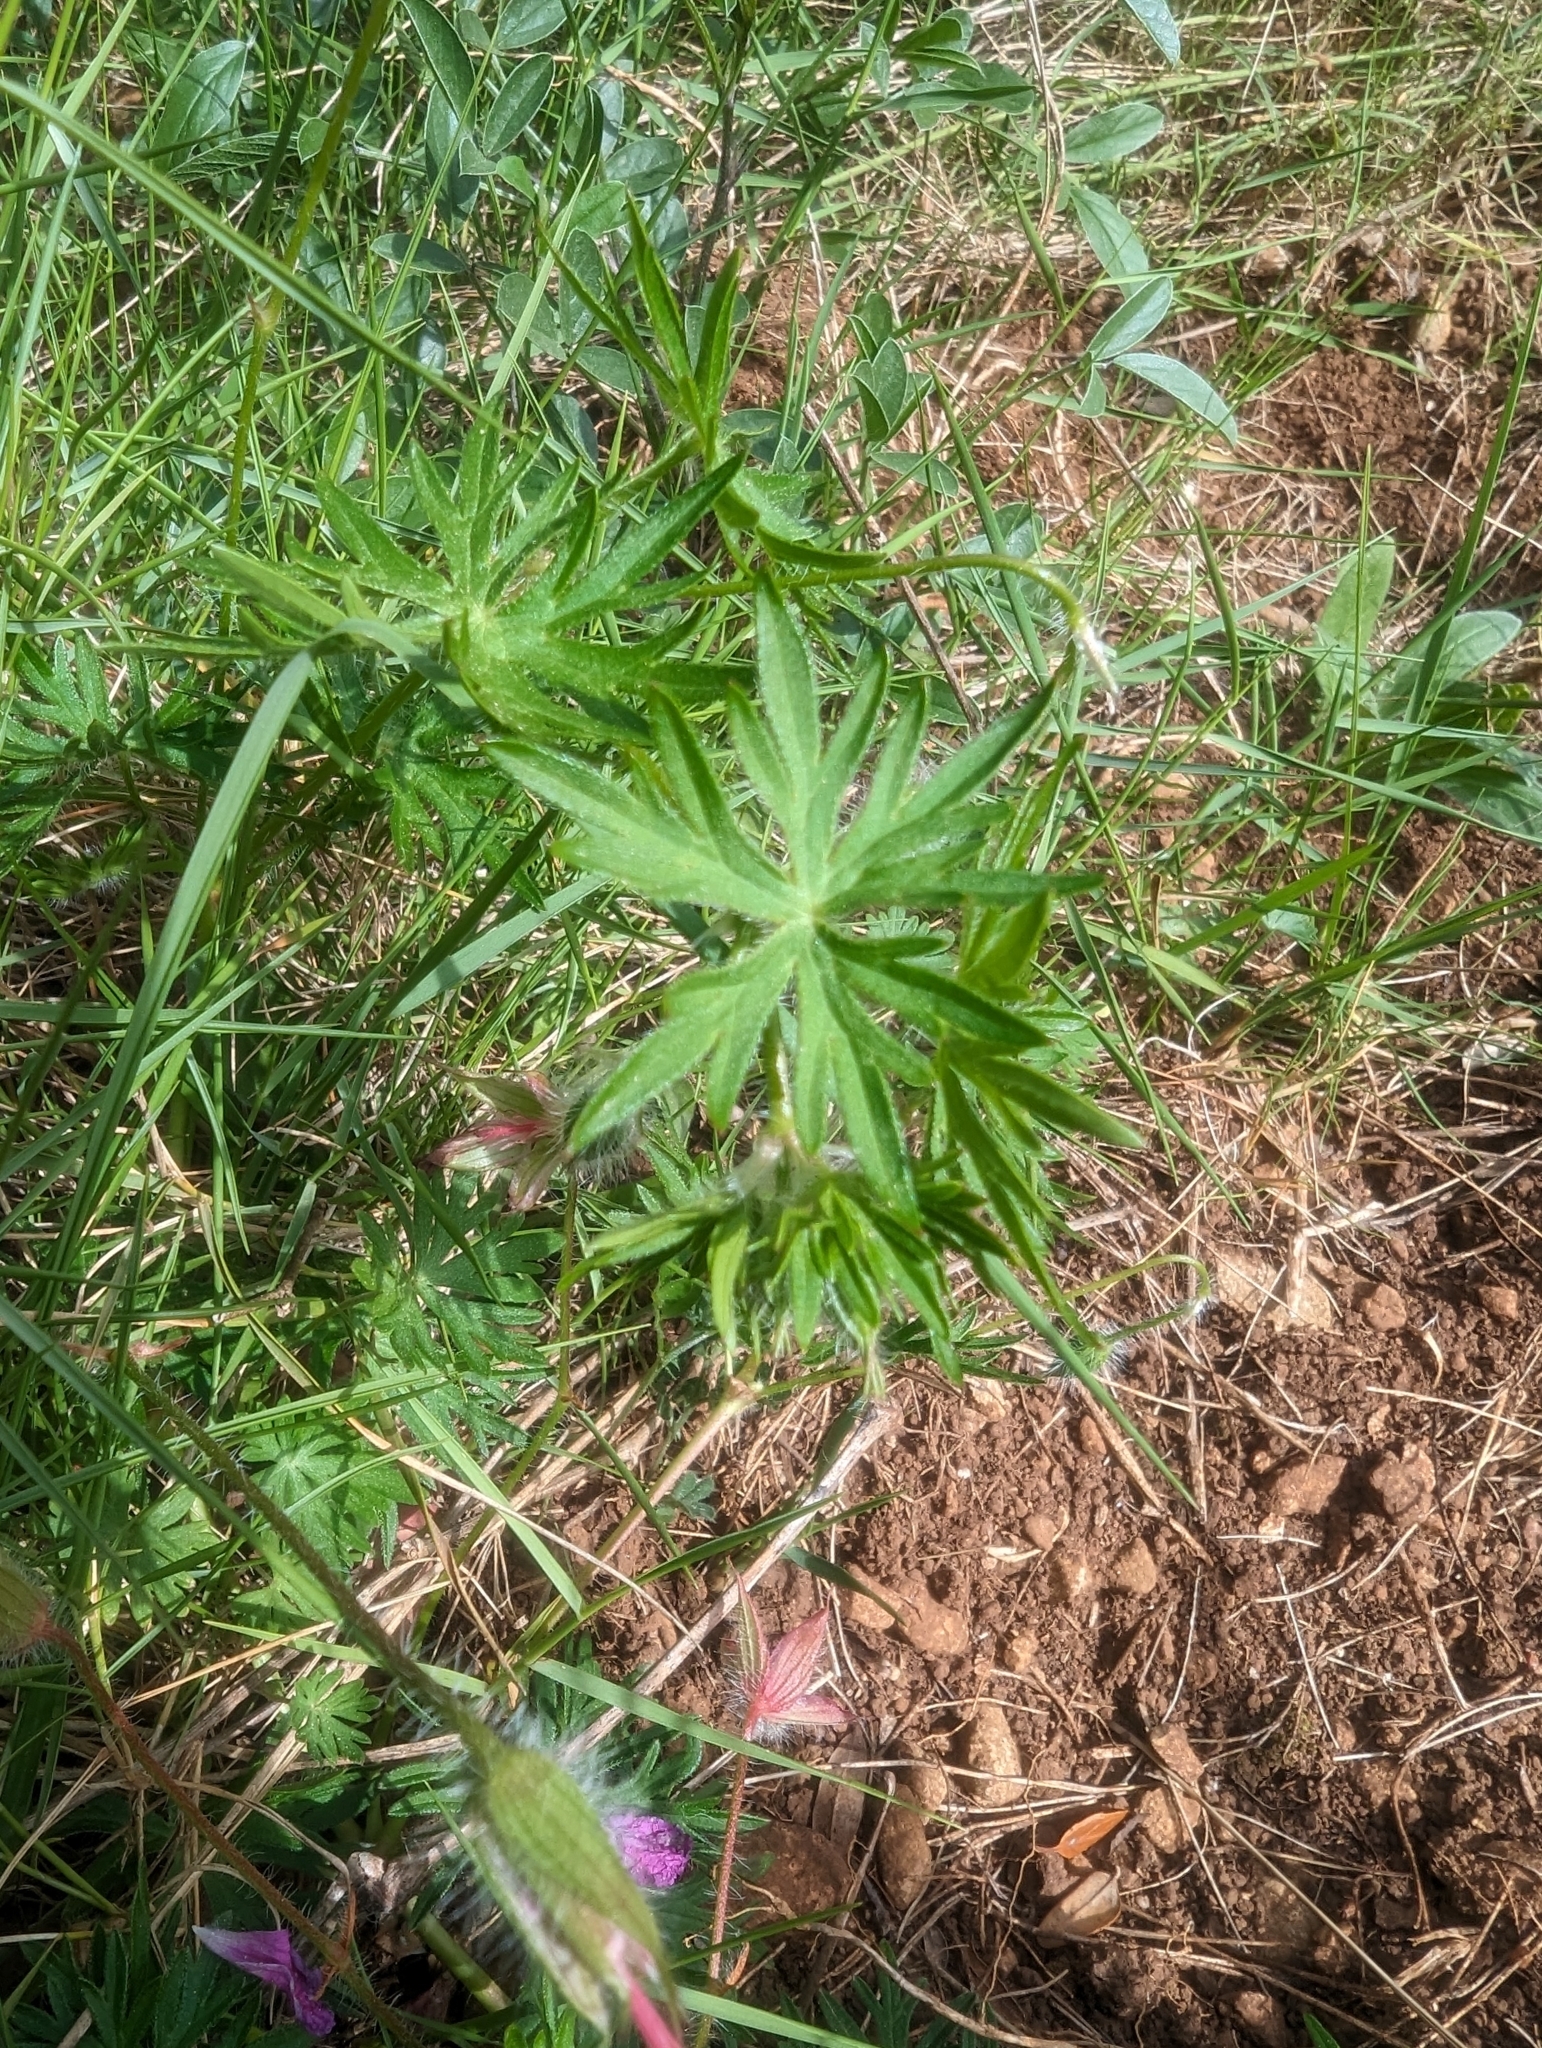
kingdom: Plantae
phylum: Tracheophyta
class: Magnoliopsida
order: Geraniales
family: Geraniaceae
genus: Geranium
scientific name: Geranium sanguineum
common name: Bloody crane's-bill
